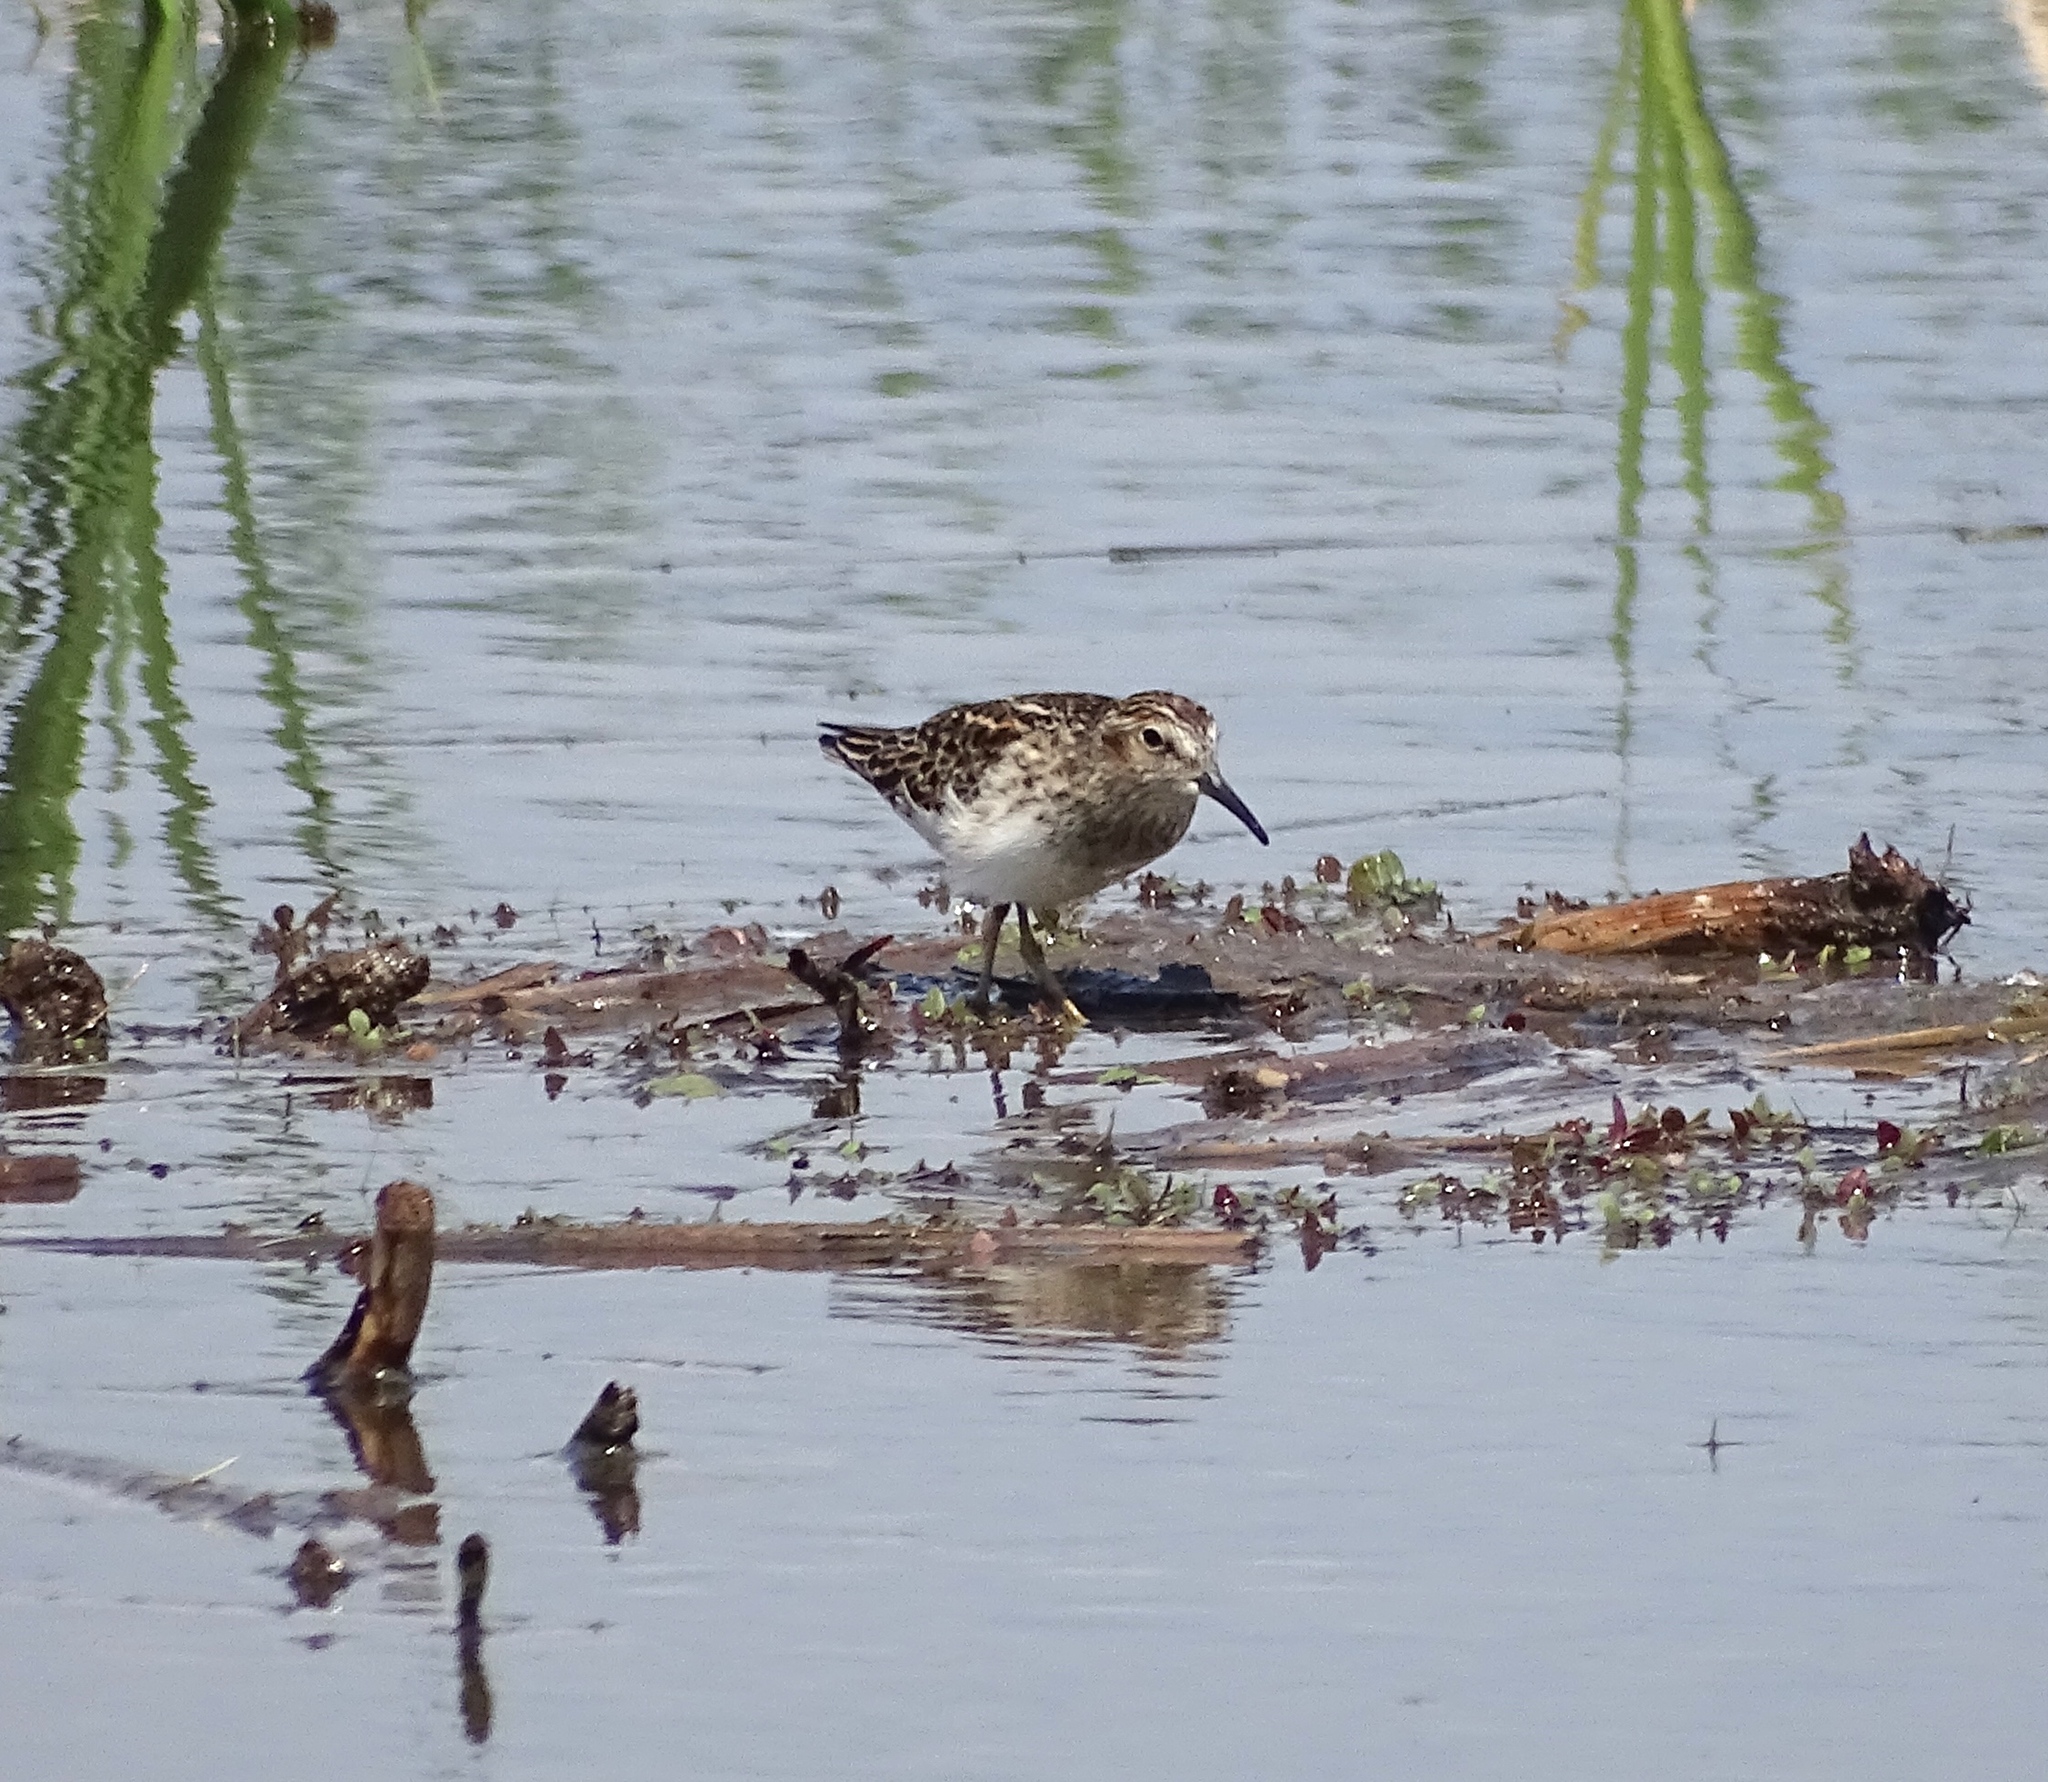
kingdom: Animalia
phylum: Chordata
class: Aves
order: Charadriiformes
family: Scolopacidae
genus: Calidris
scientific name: Calidris minutilla
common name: Least sandpiper
